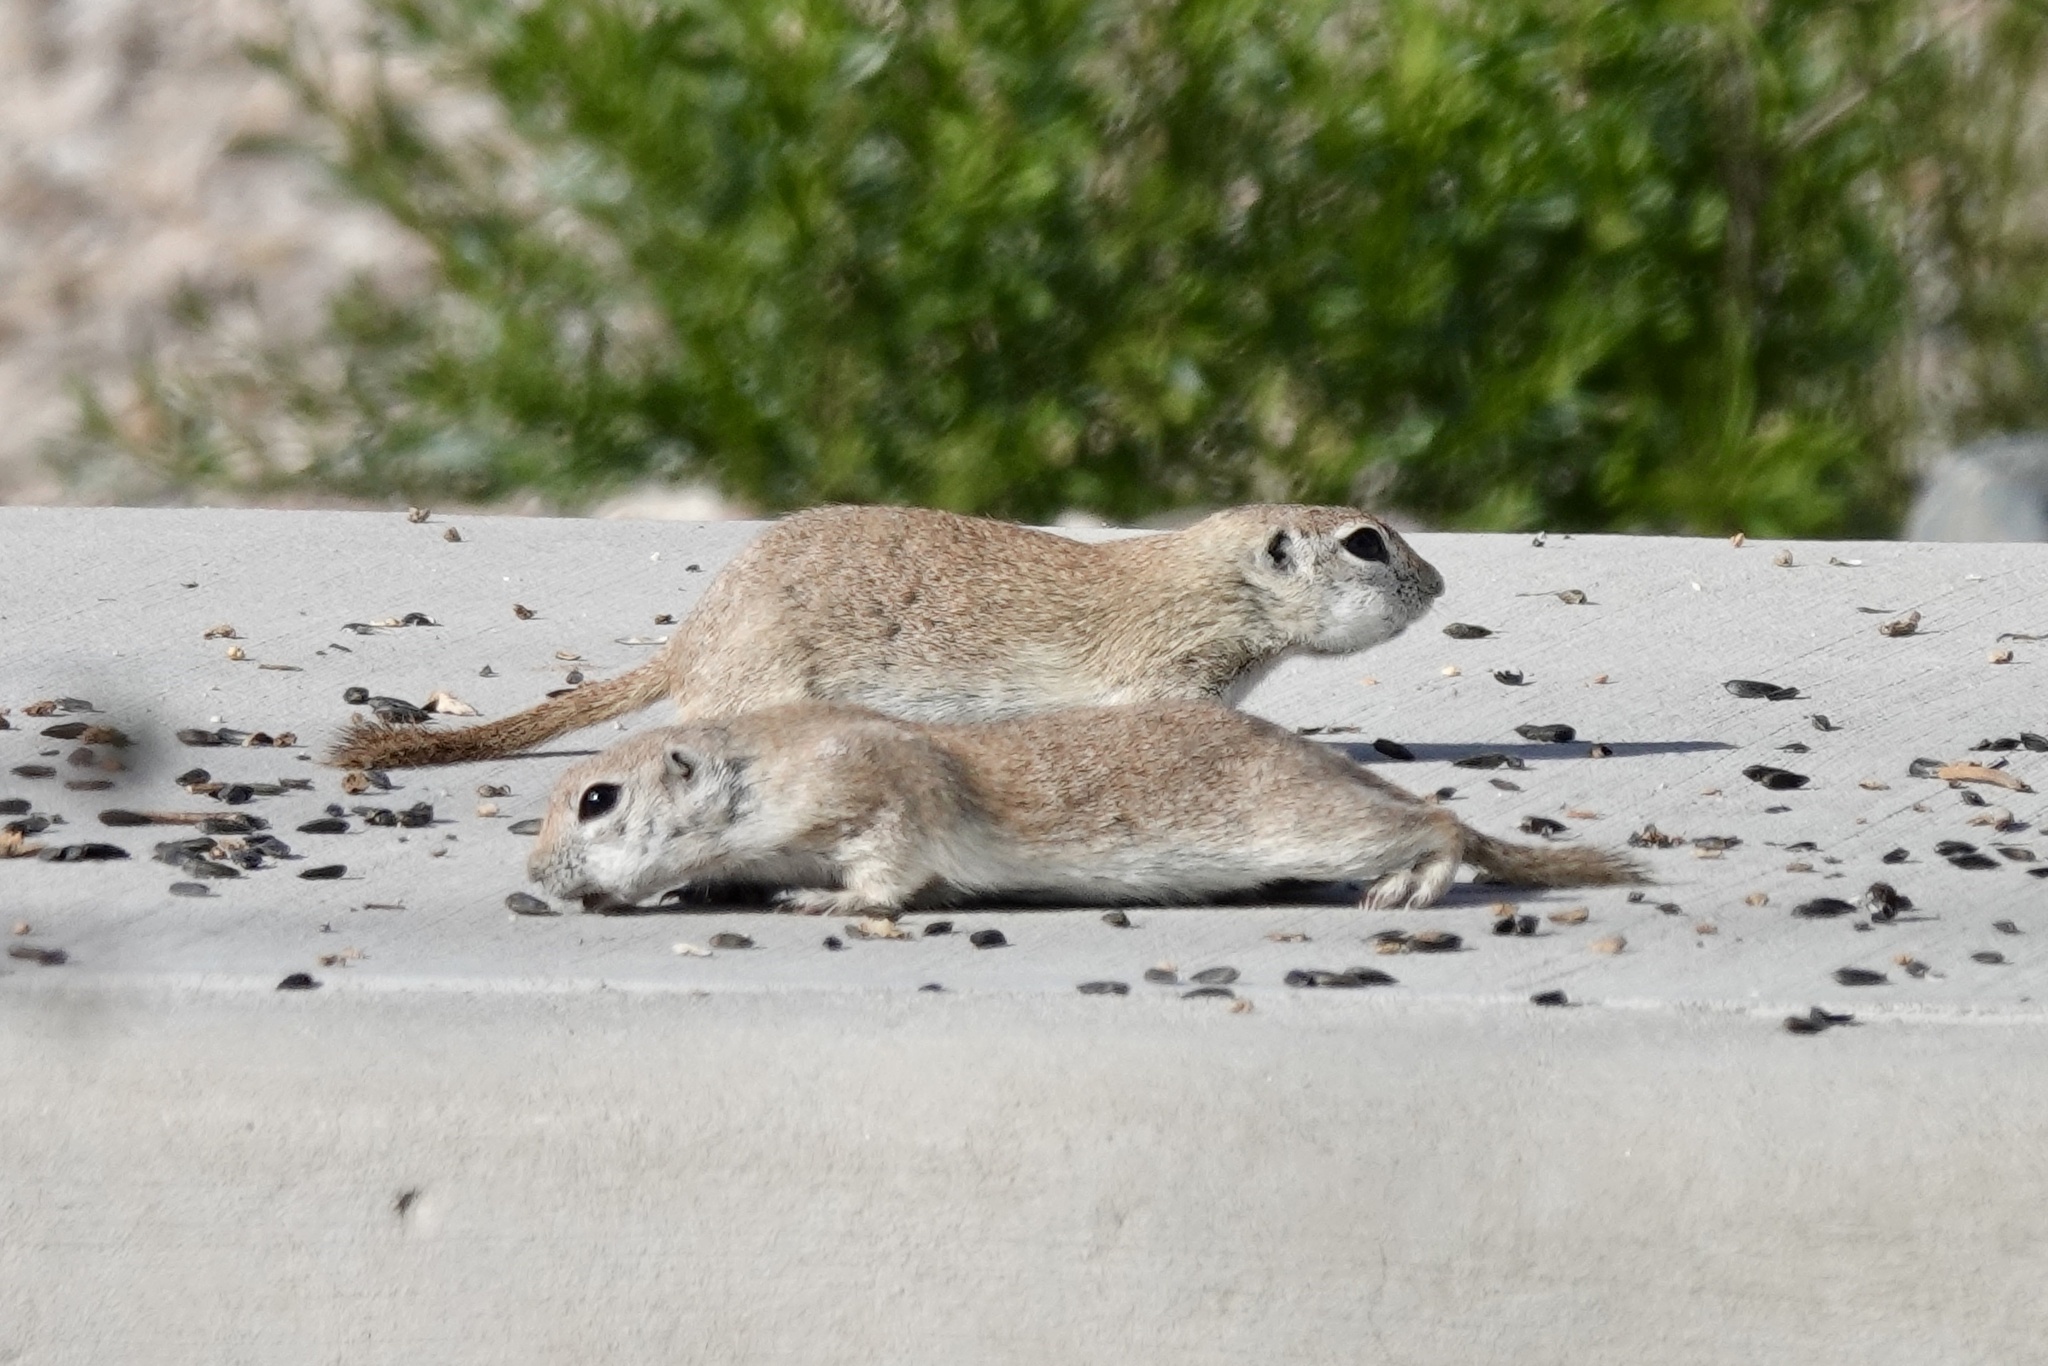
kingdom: Animalia
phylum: Chordata
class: Mammalia
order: Rodentia
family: Sciuridae
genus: Xerospermophilus
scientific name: Xerospermophilus tereticaudus
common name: Round-tailed ground squirrel
